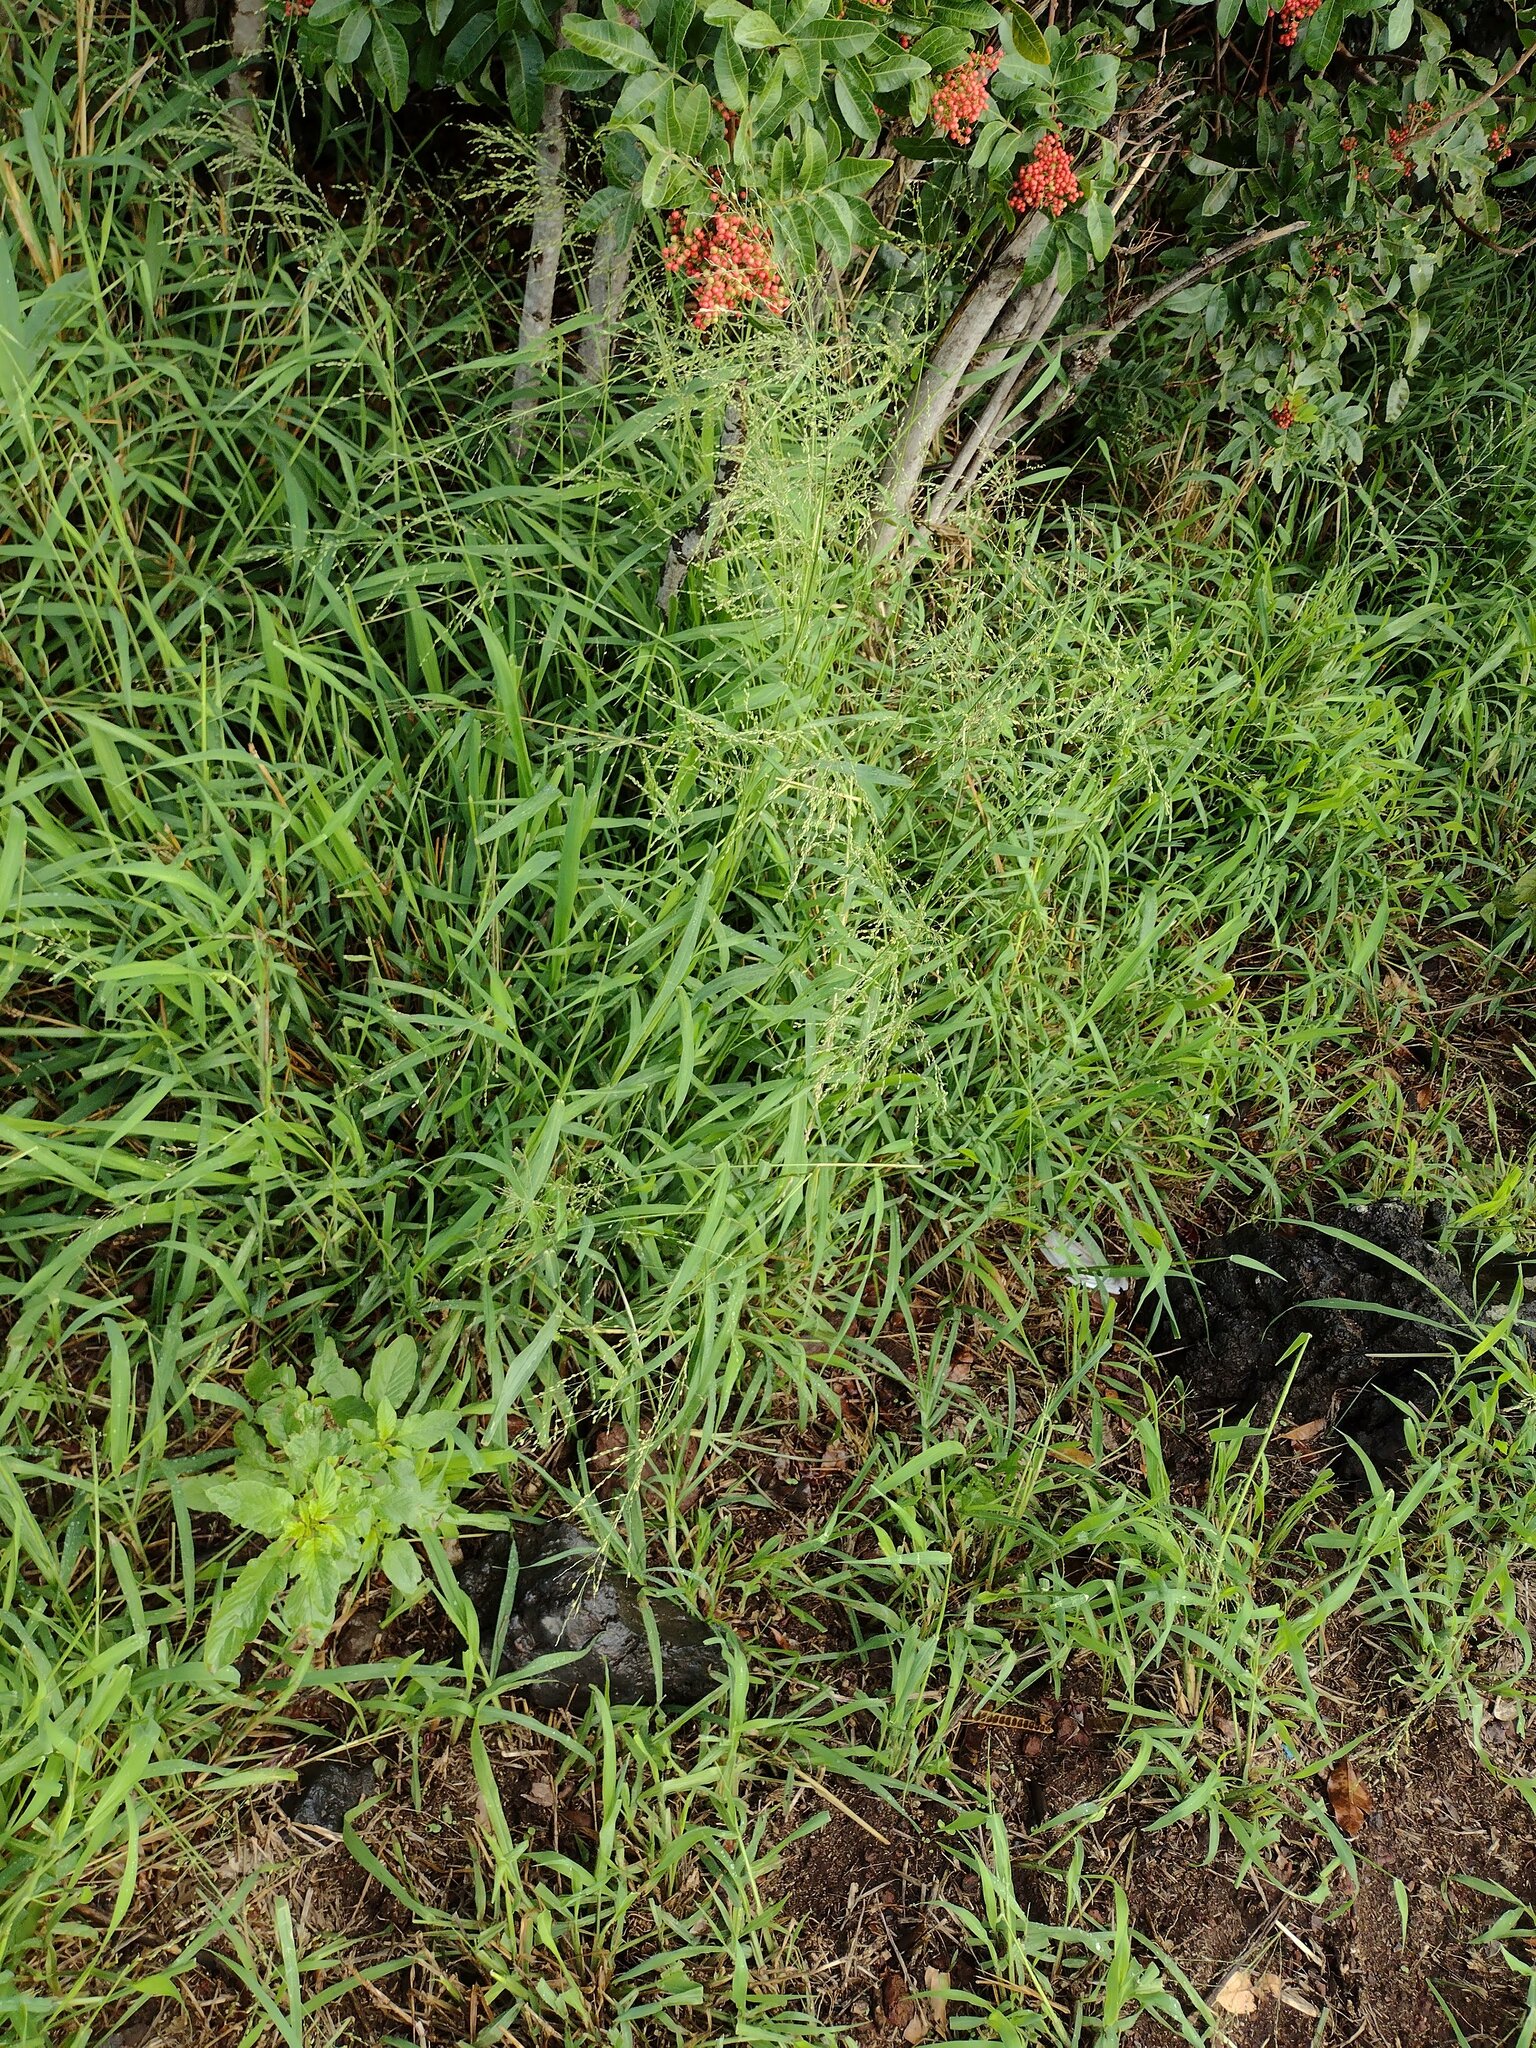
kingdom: Plantae
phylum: Tracheophyta
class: Liliopsida
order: Poales
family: Poaceae
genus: Megathyrsus
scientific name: Megathyrsus maximus
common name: Guineagrass
